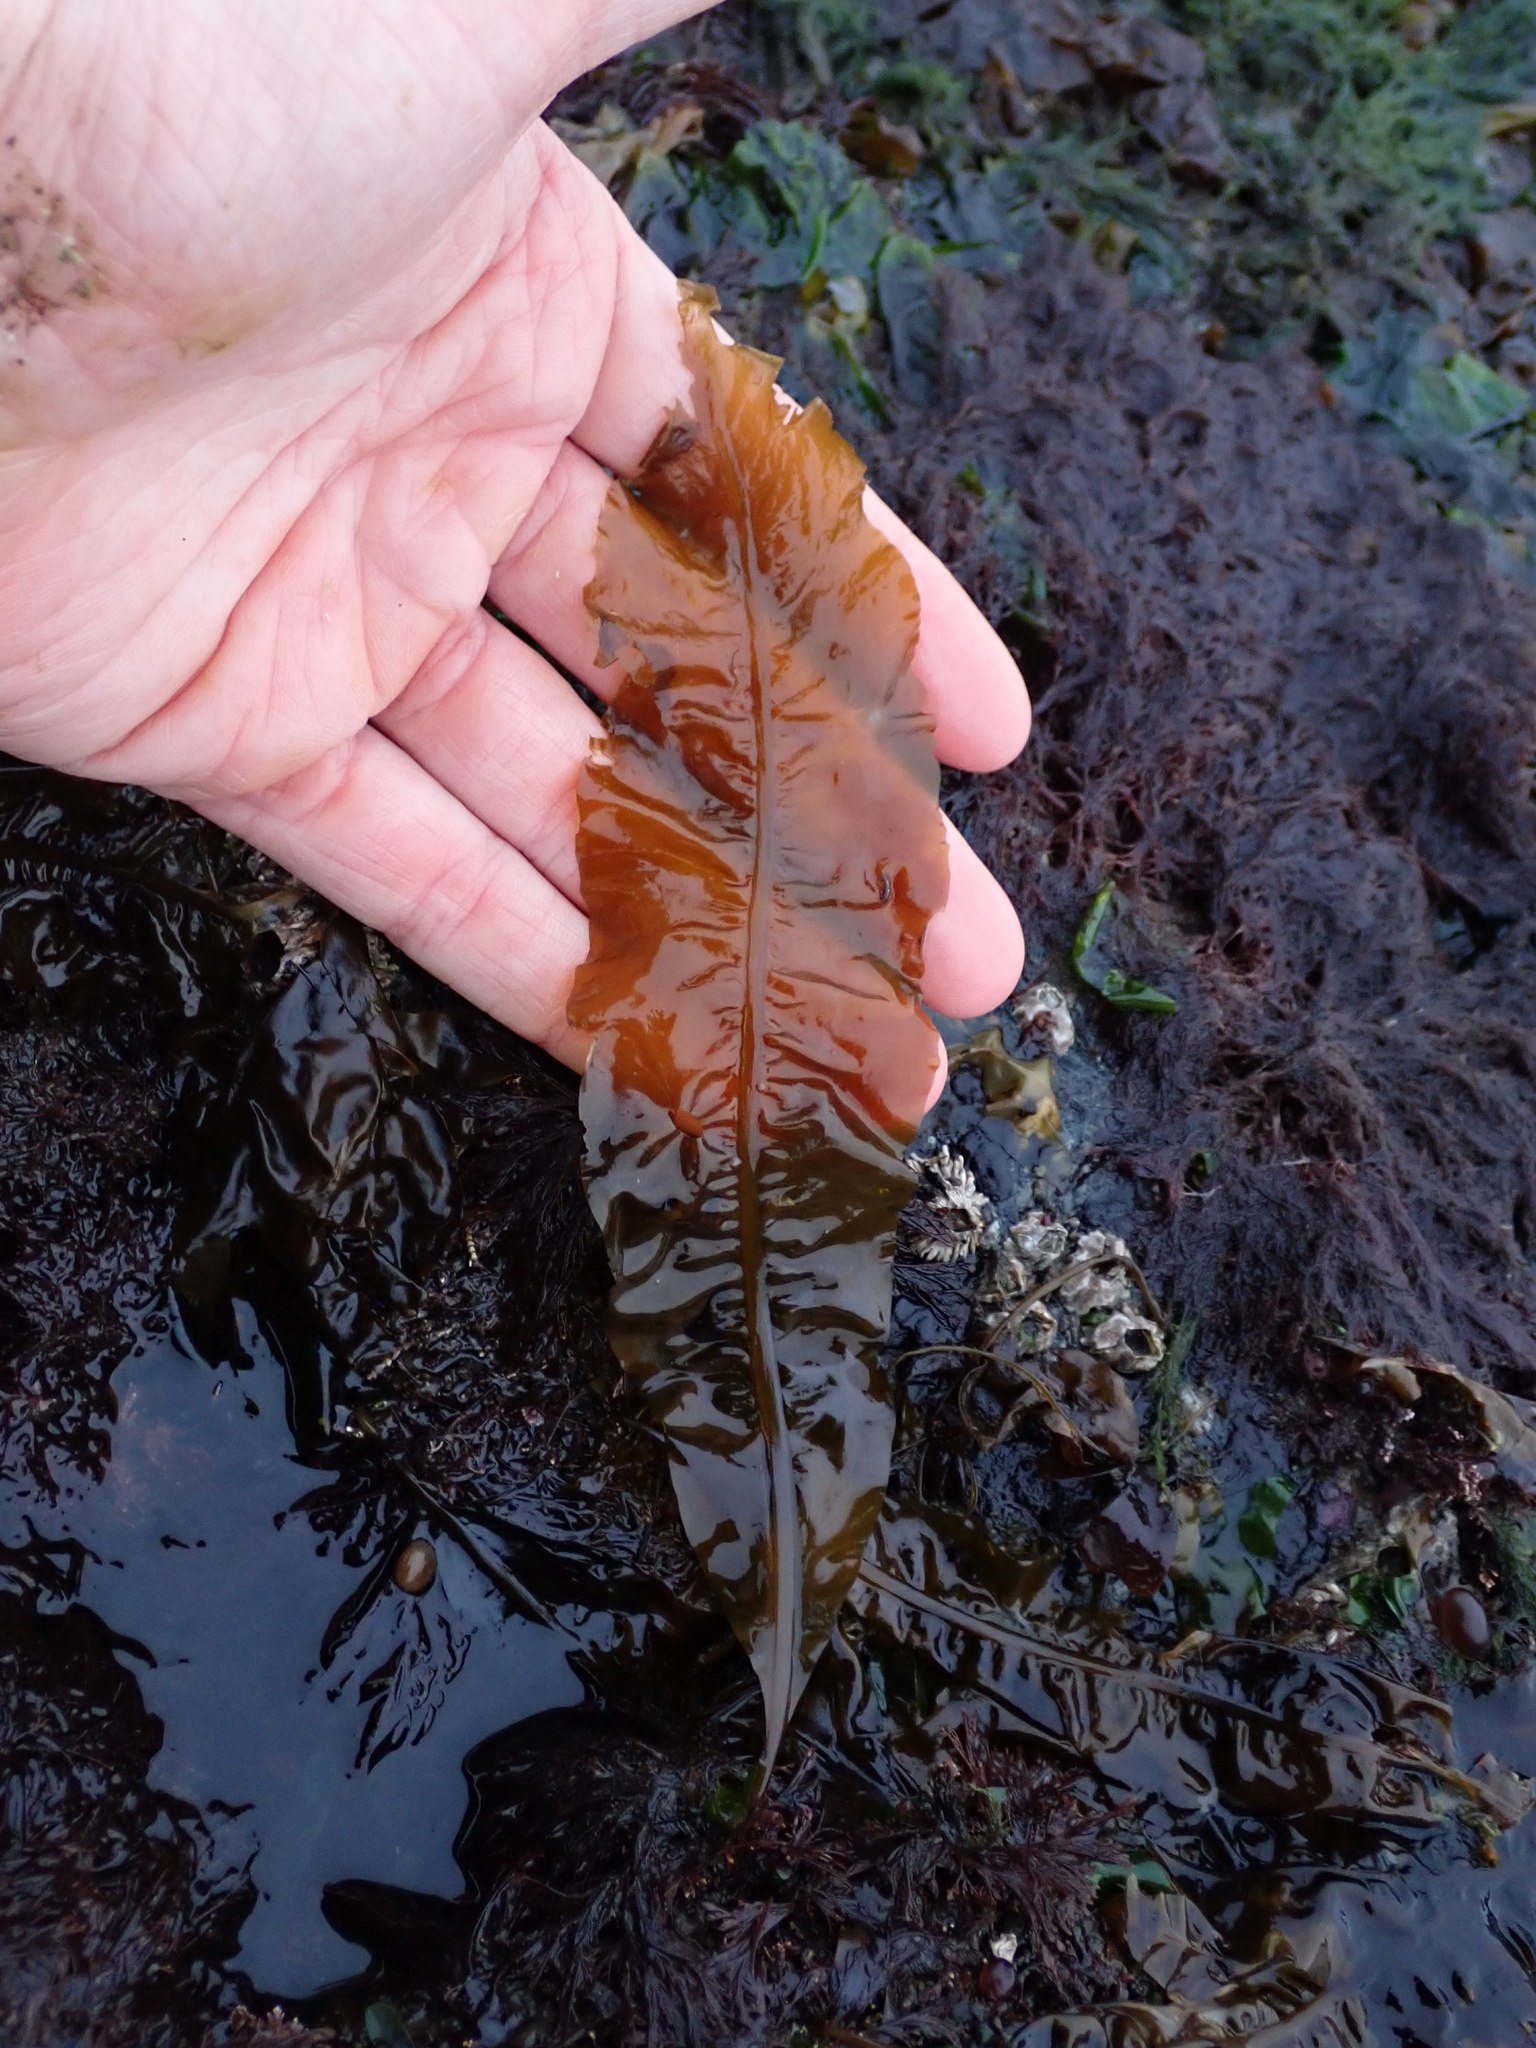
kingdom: Chromista
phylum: Ochrophyta
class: Phaeophyceae
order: Laminariales
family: Alariaceae
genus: Alaria
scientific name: Alaria marginata
